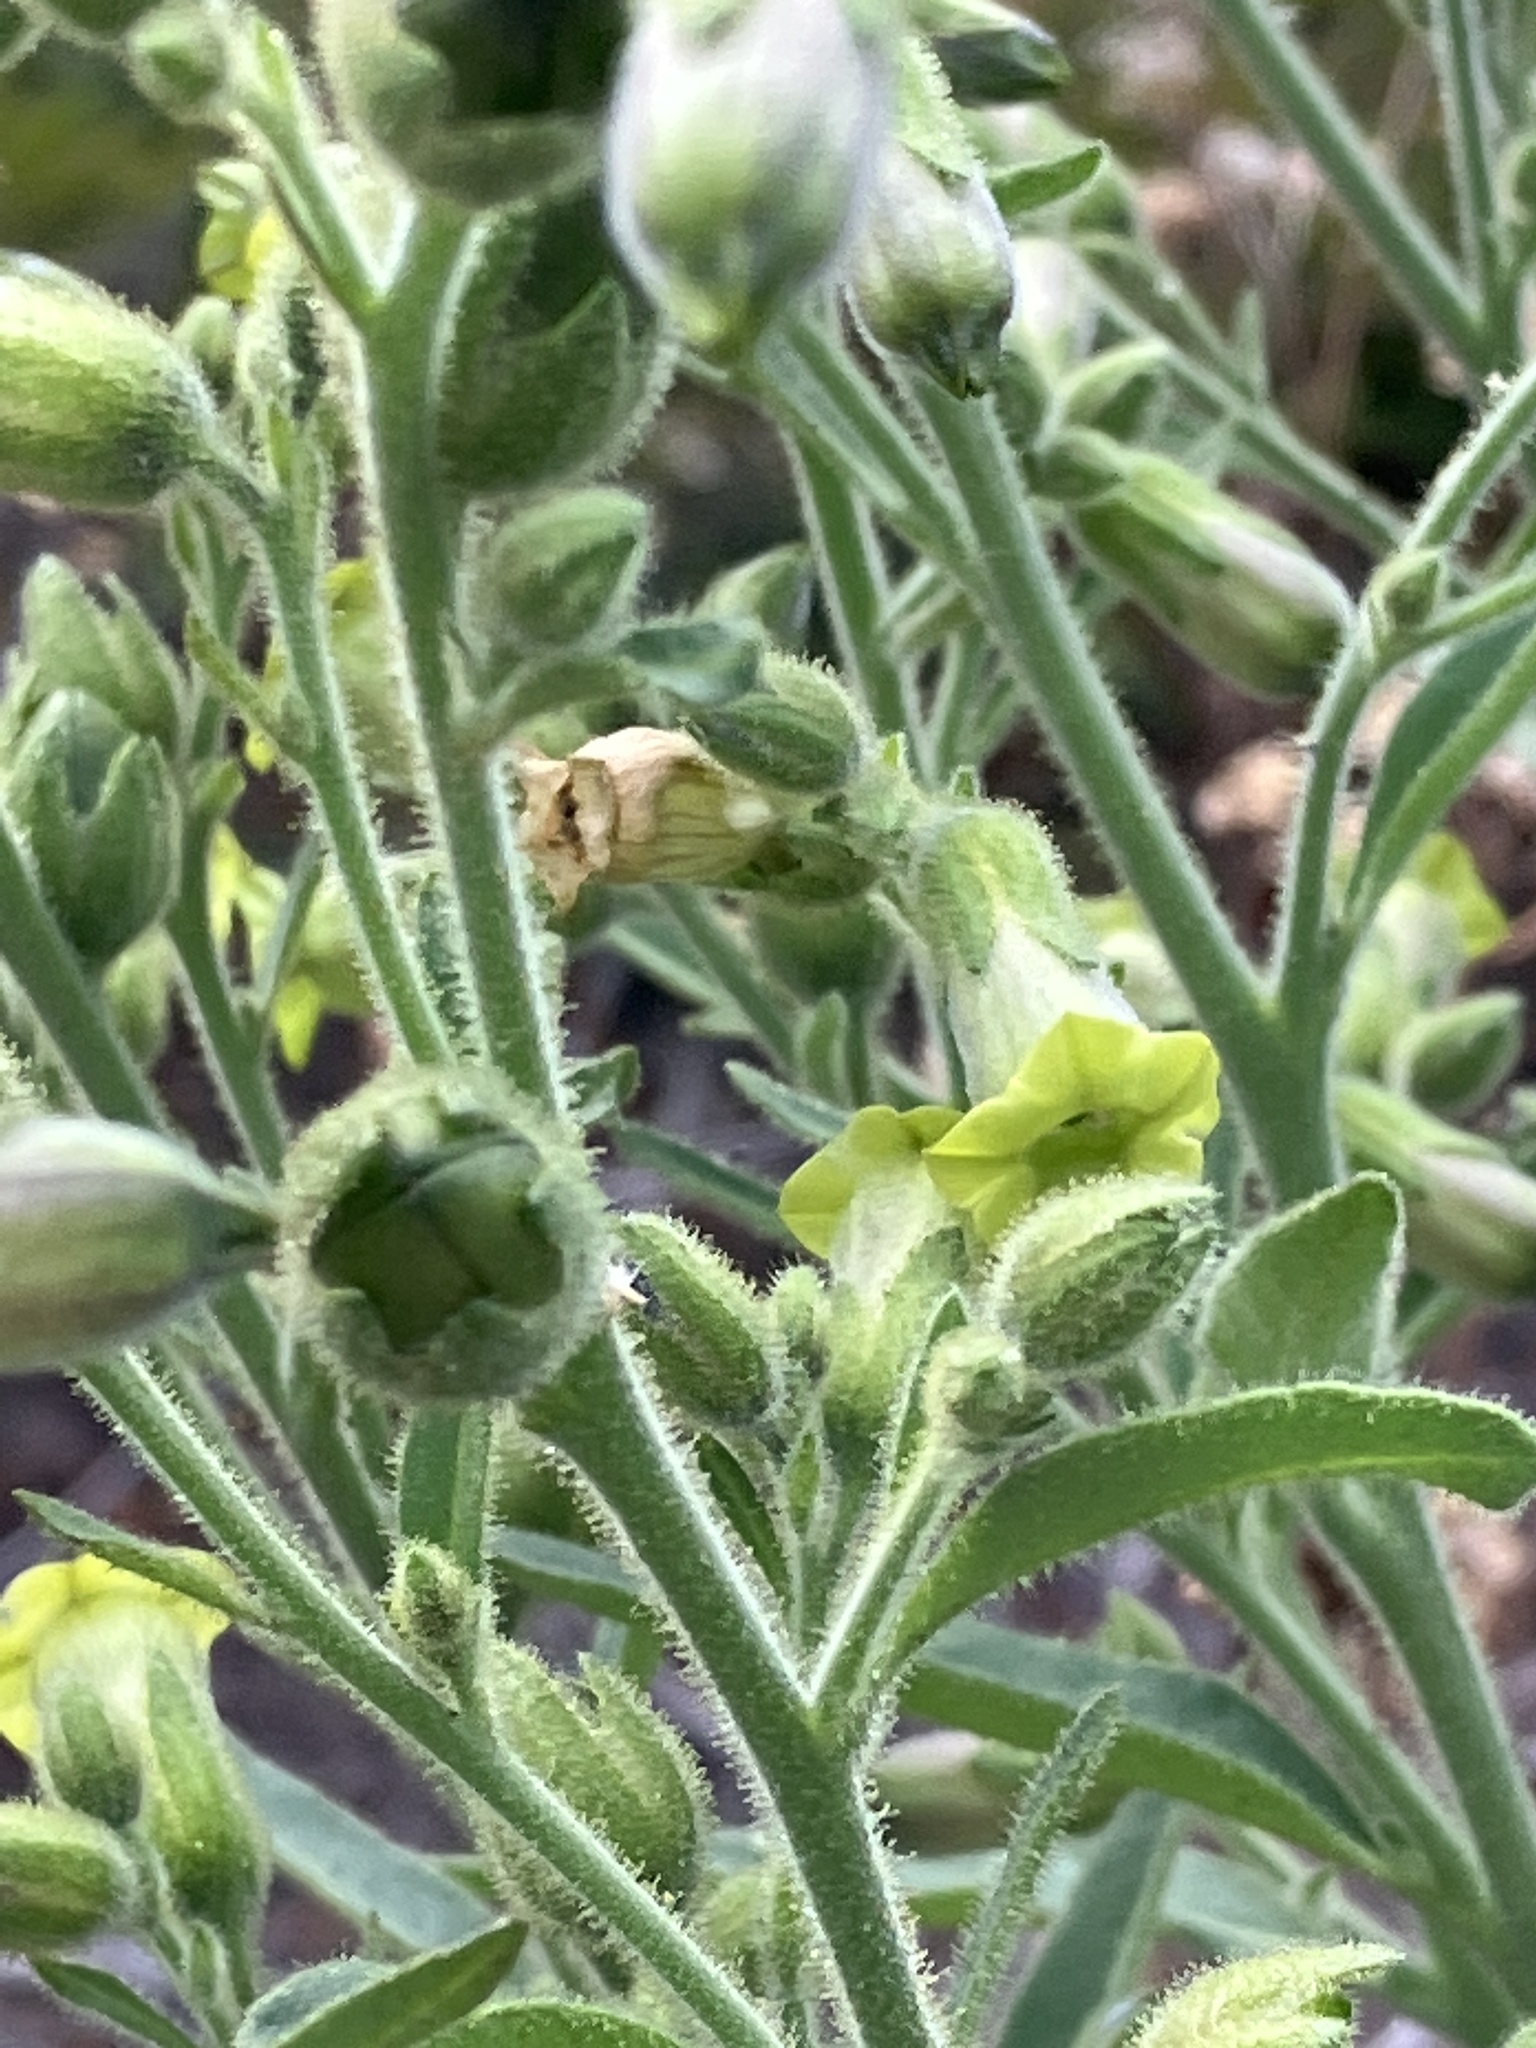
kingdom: Plantae
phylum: Tracheophyta
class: Magnoliopsida
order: Solanales
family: Solanaceae
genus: Nicotiana
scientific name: Nicotiana rustica
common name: Wild tobacco
